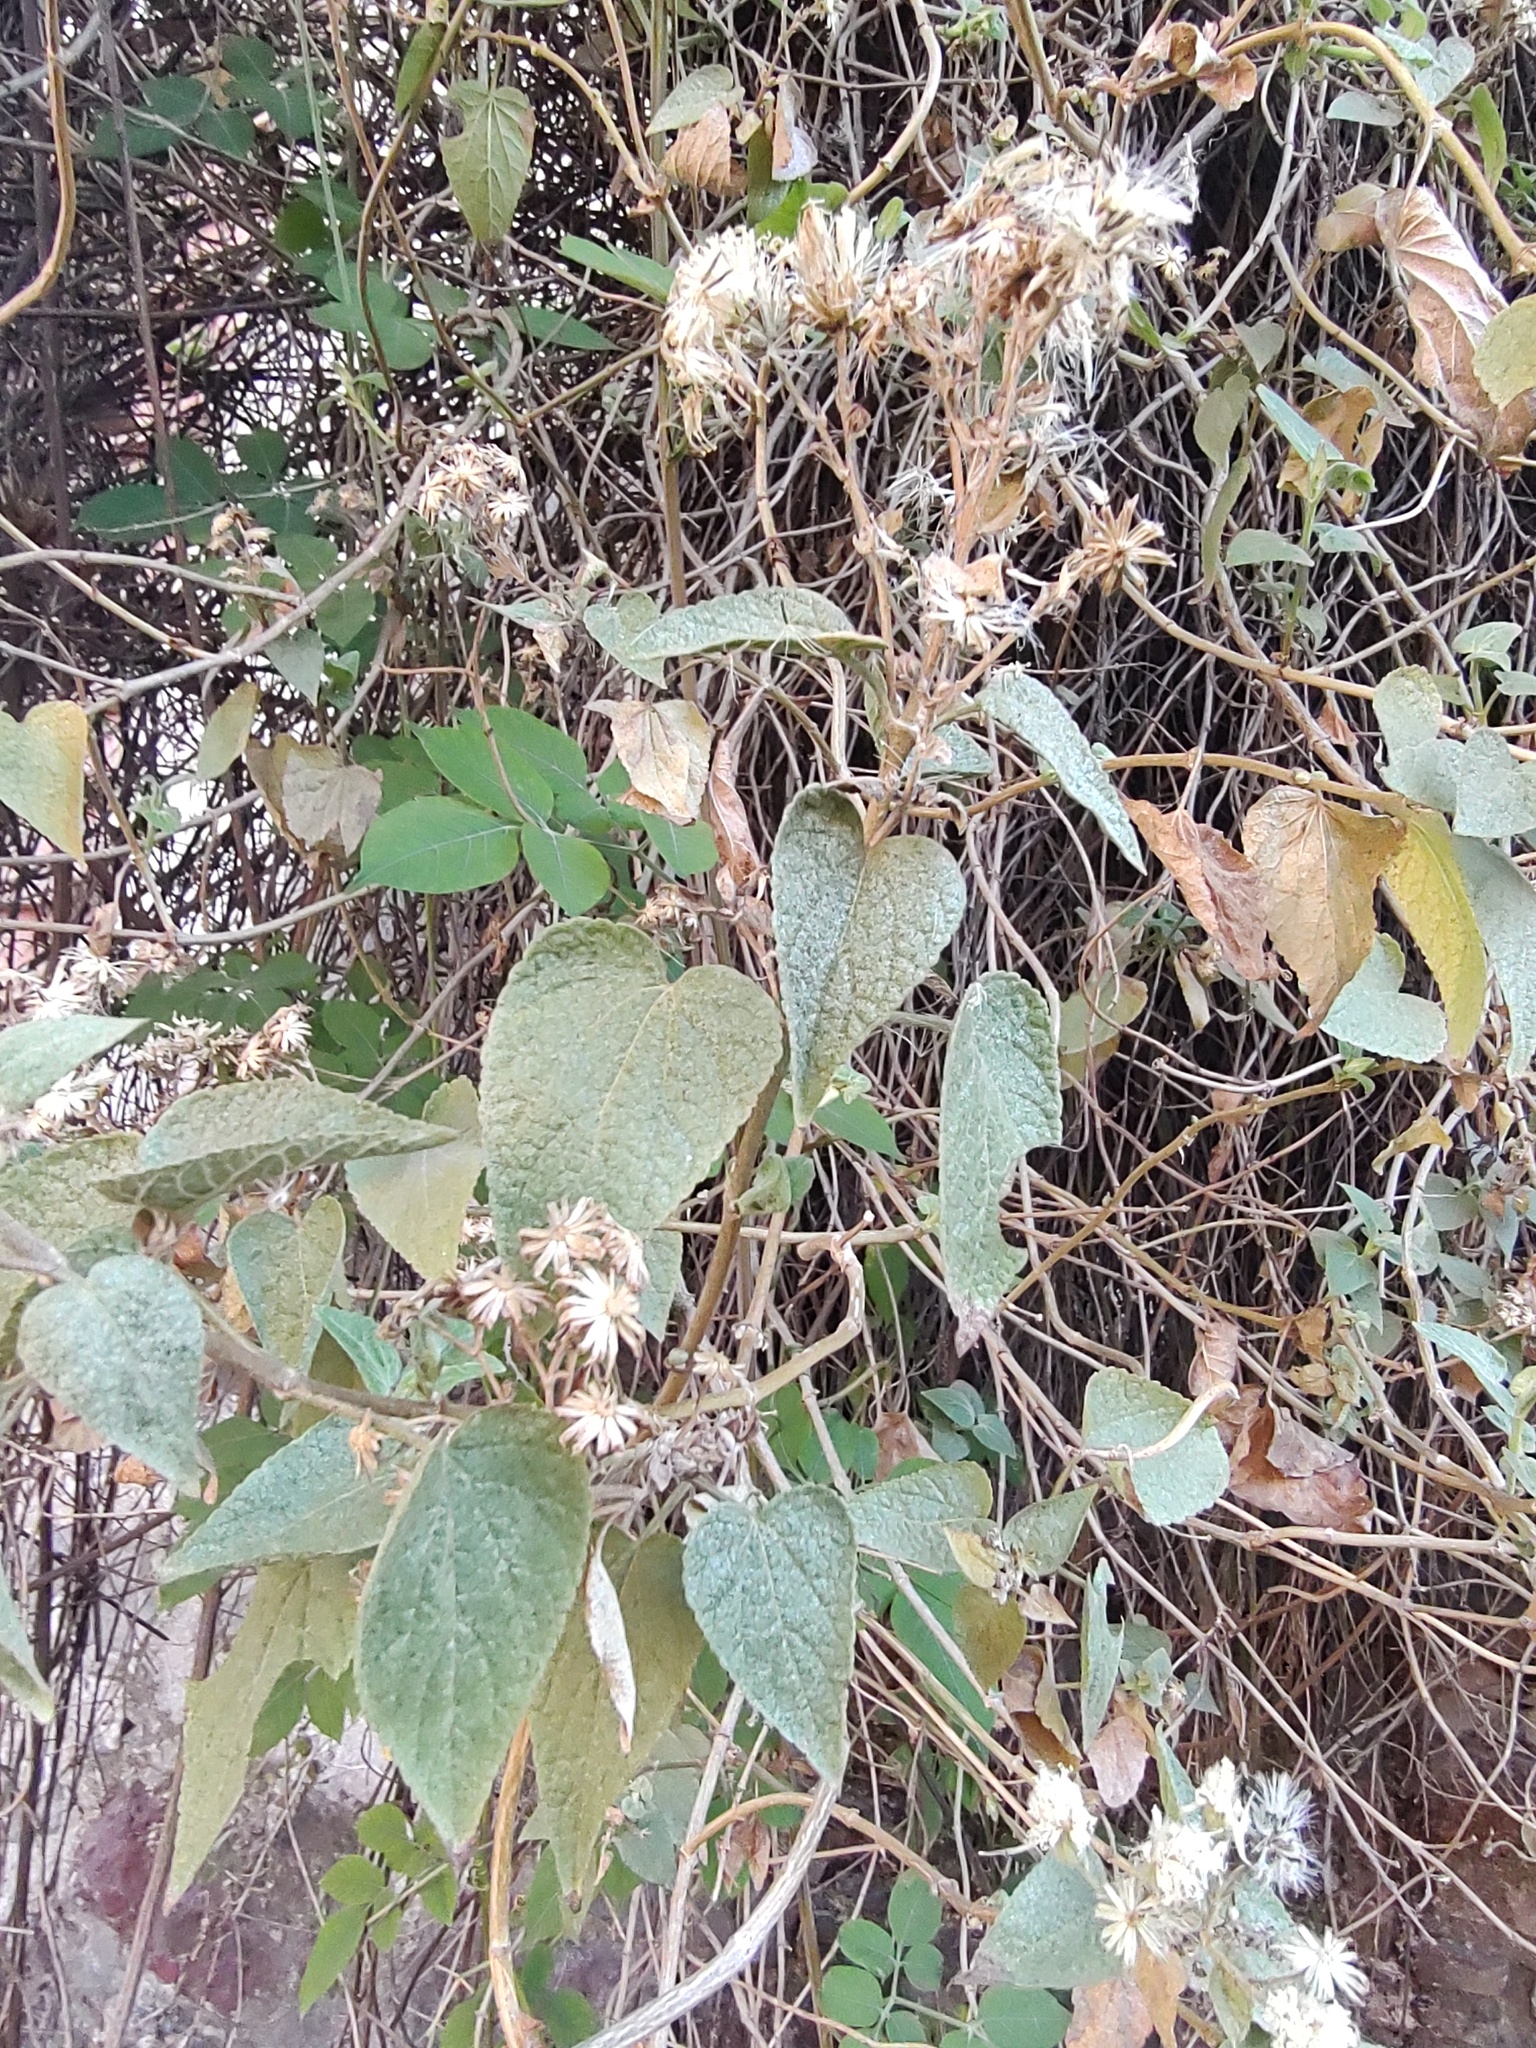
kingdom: Plantae
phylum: Tracheophyta
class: Magnoliopsida
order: Asterales
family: Asteraceae
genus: Ageratina
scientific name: Ageratina petiolaris
